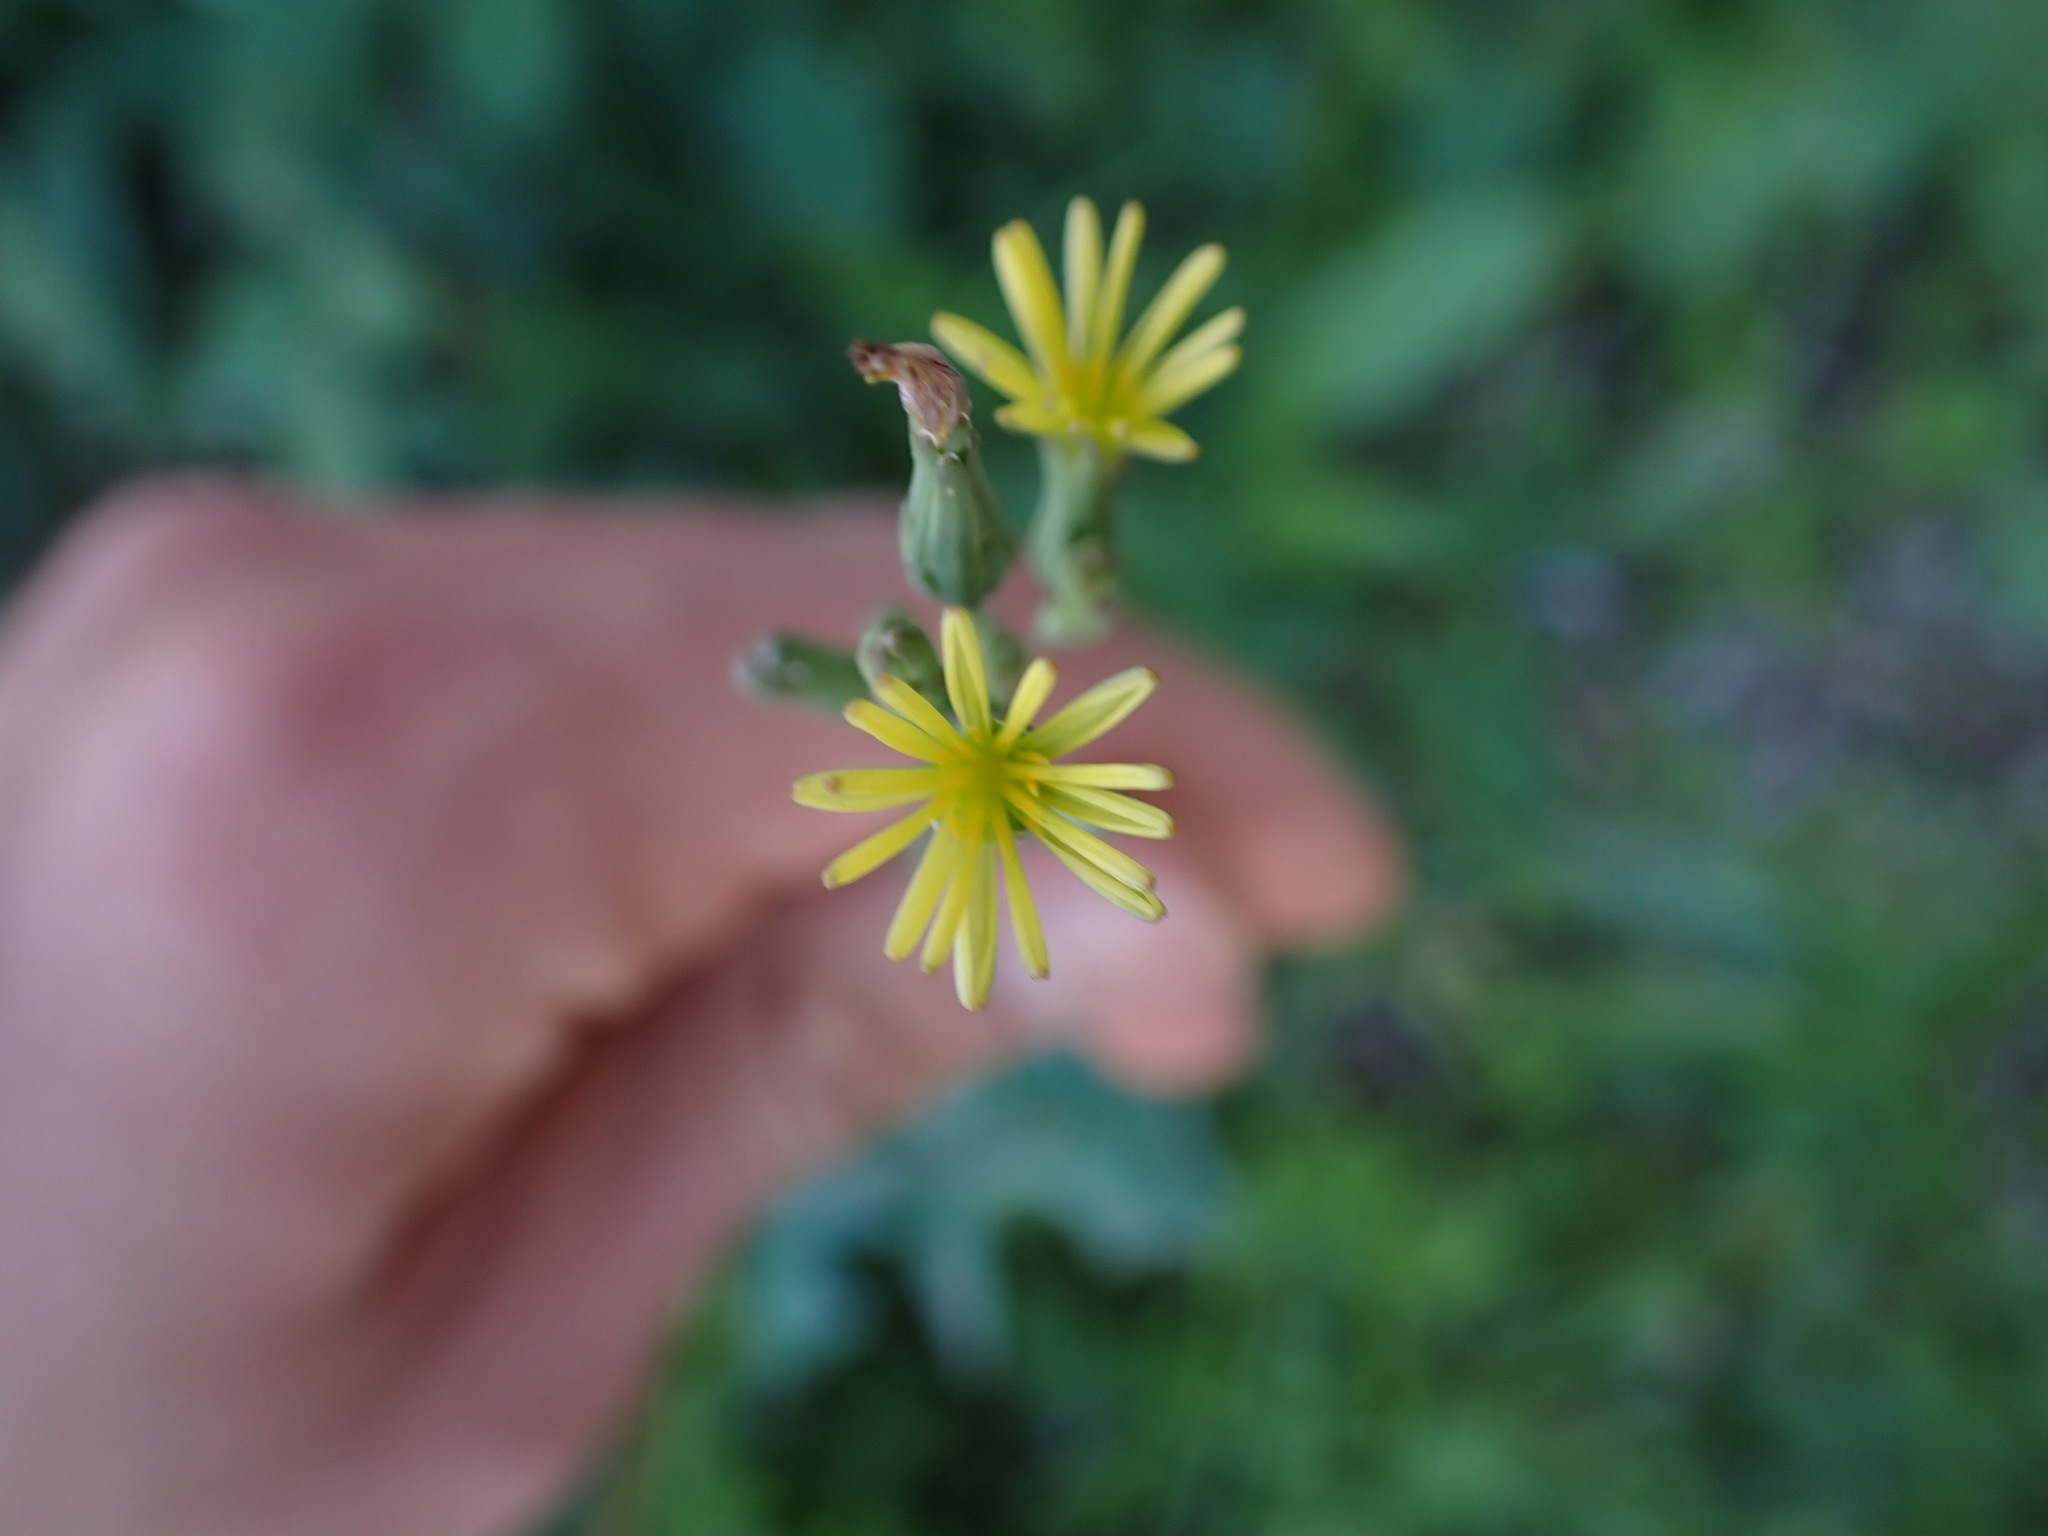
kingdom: Plantae
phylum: Tracheophyta
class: Magnoliopsida
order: Asterales
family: Asteraceae
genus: Lactuca
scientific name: Lactuca serriola
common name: Prickly lettuce
